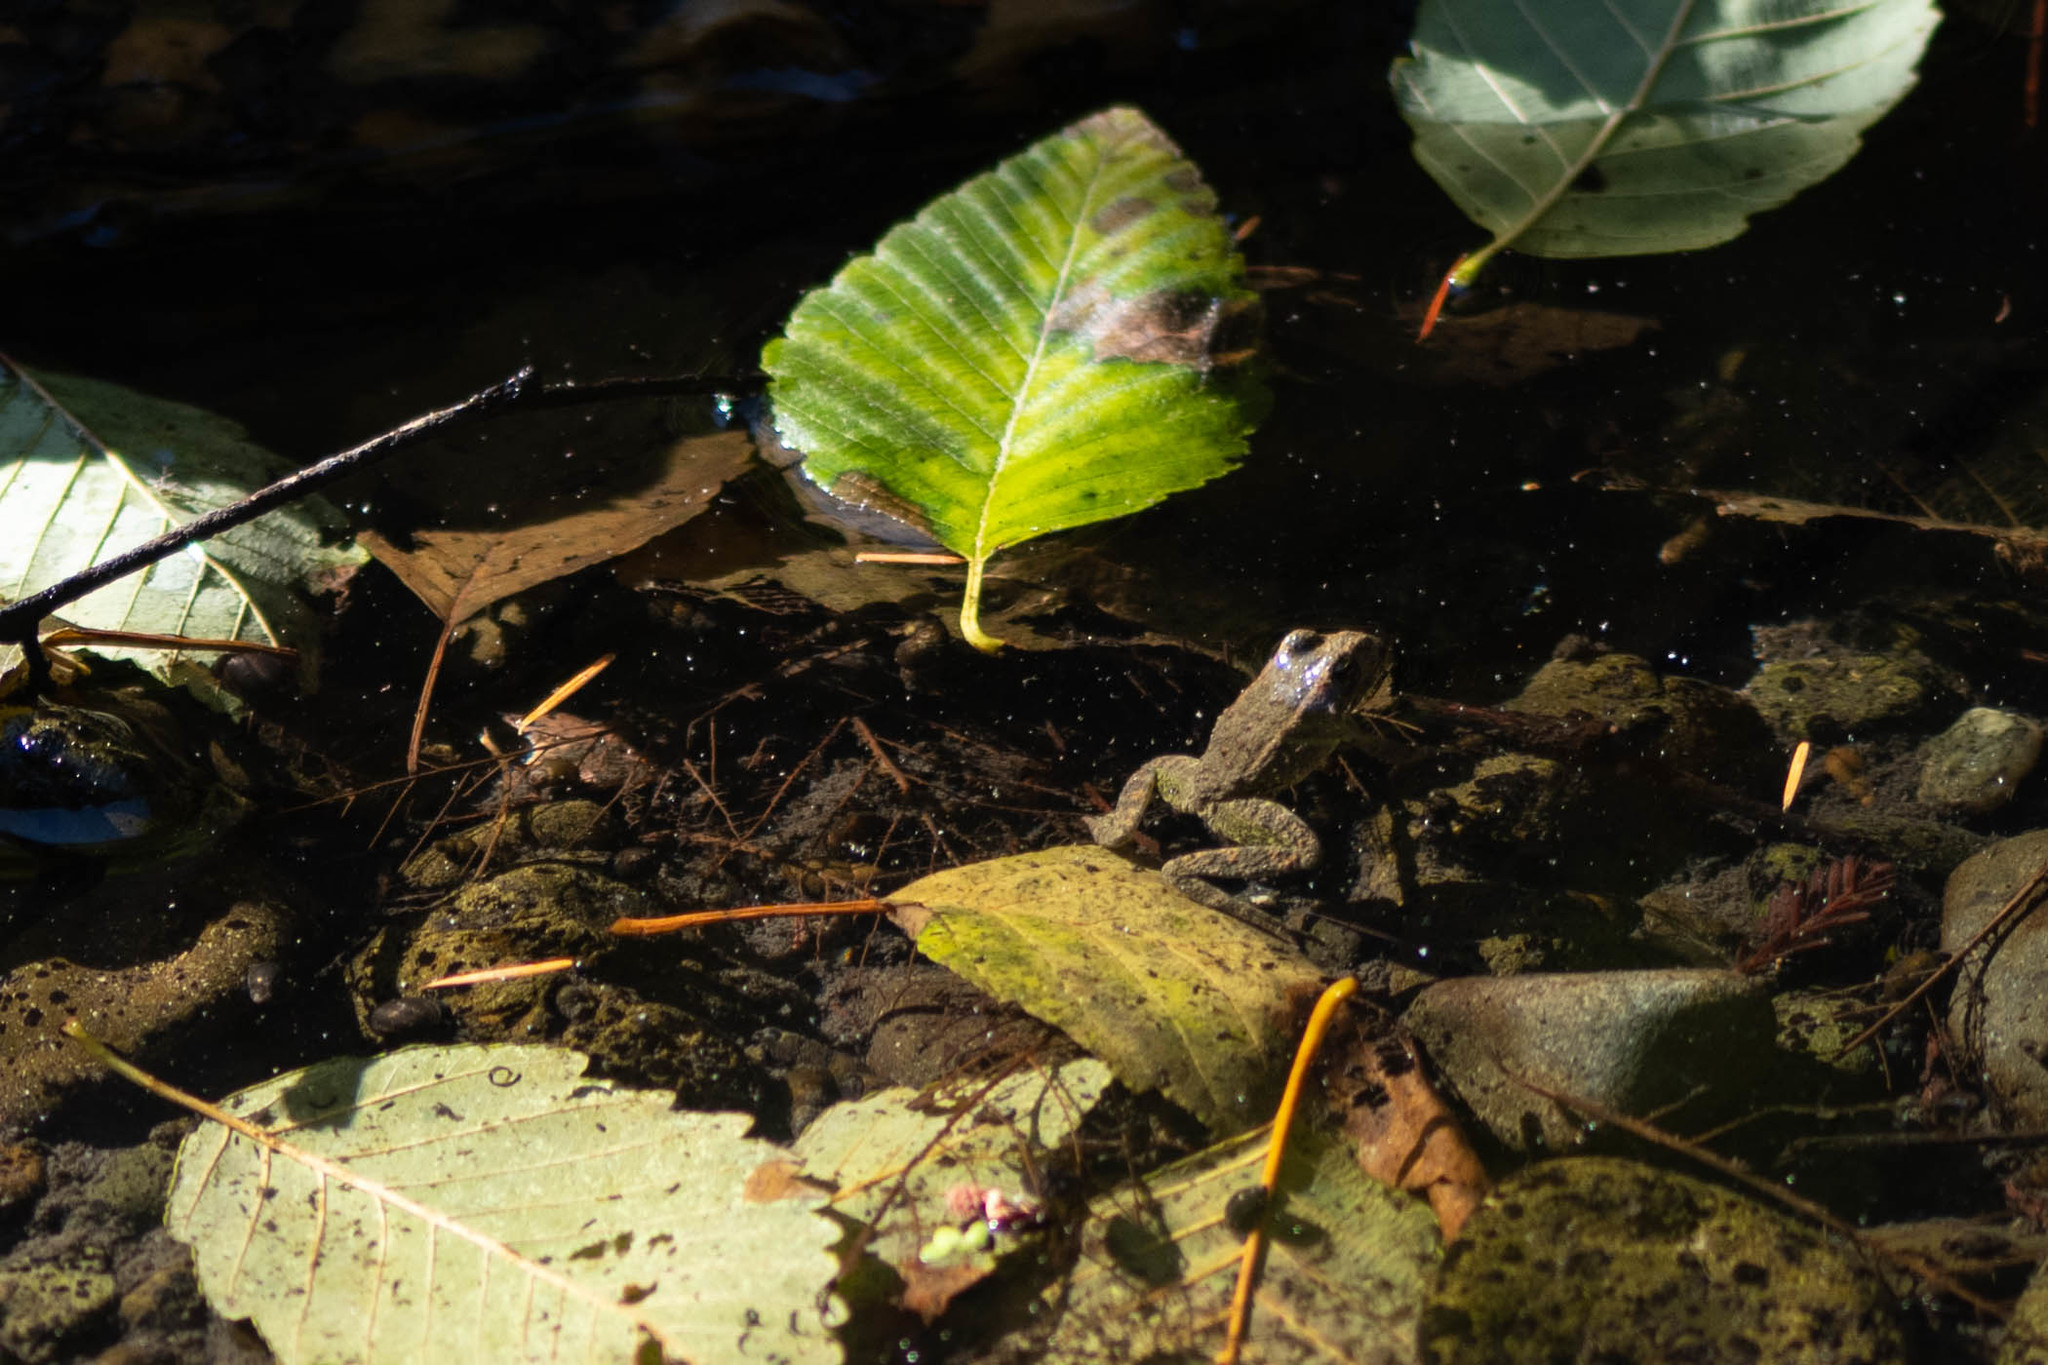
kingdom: Animalia
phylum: Chordata
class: Amphibia
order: Anura
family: Ranidae
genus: Rana
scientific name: Rana boylii
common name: Foothill yellow-legged frog
